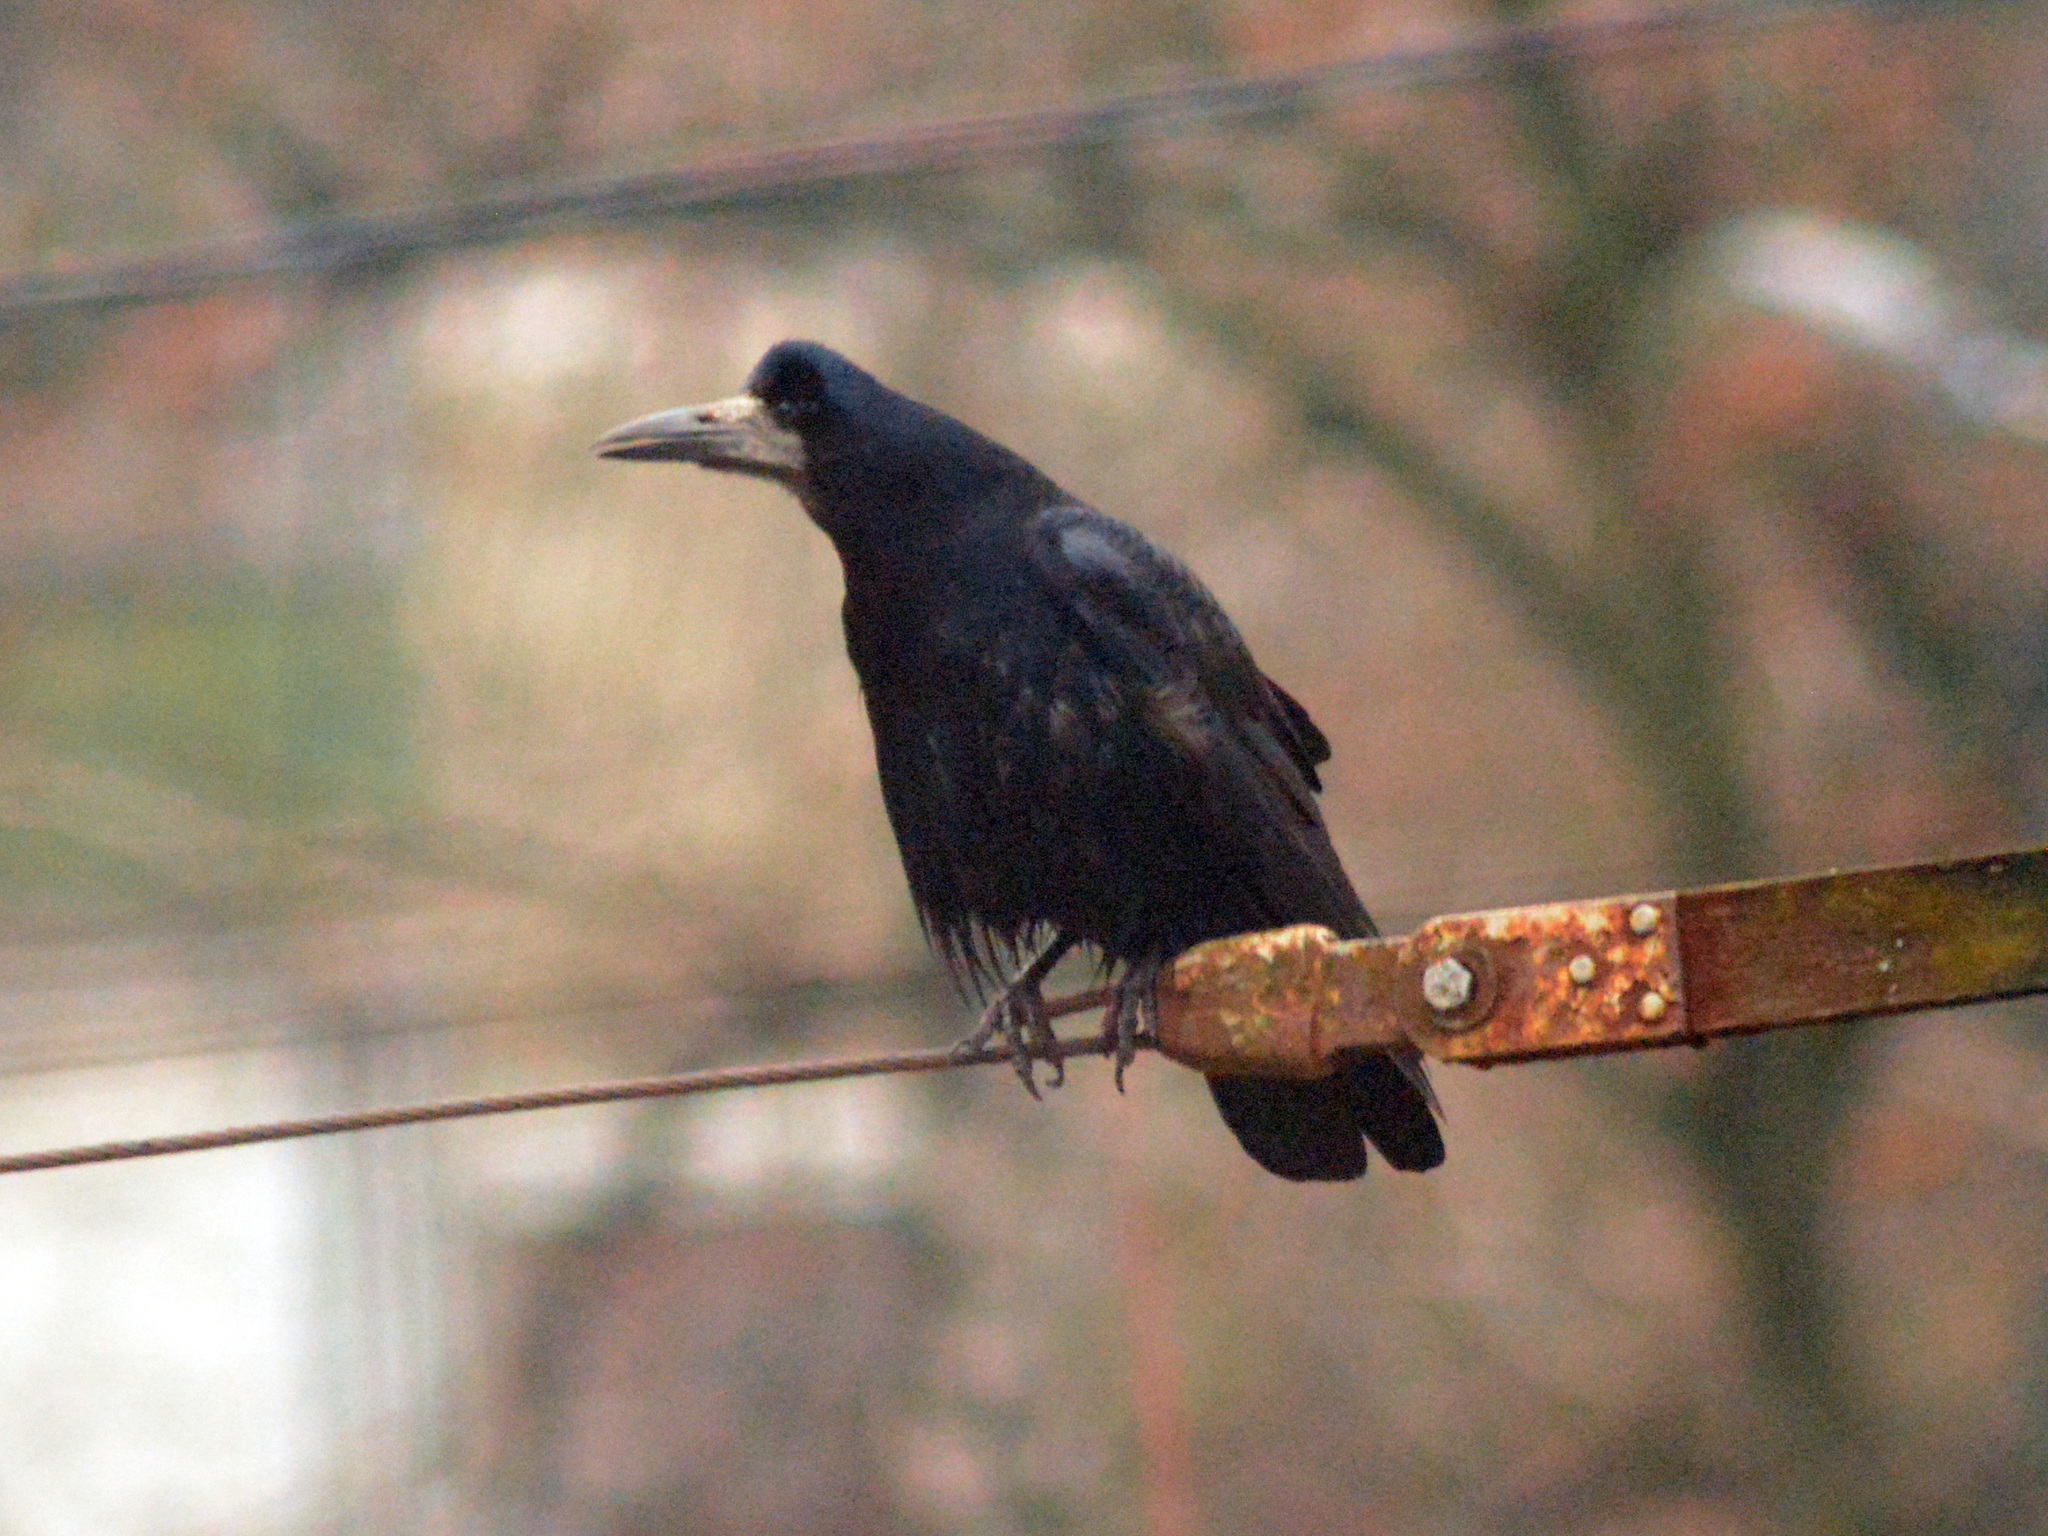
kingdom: Animalia
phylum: Chordata
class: Aves
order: Passeriformes
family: Corvidae
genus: Corvus
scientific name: Corvus frugilegus
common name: Rook
